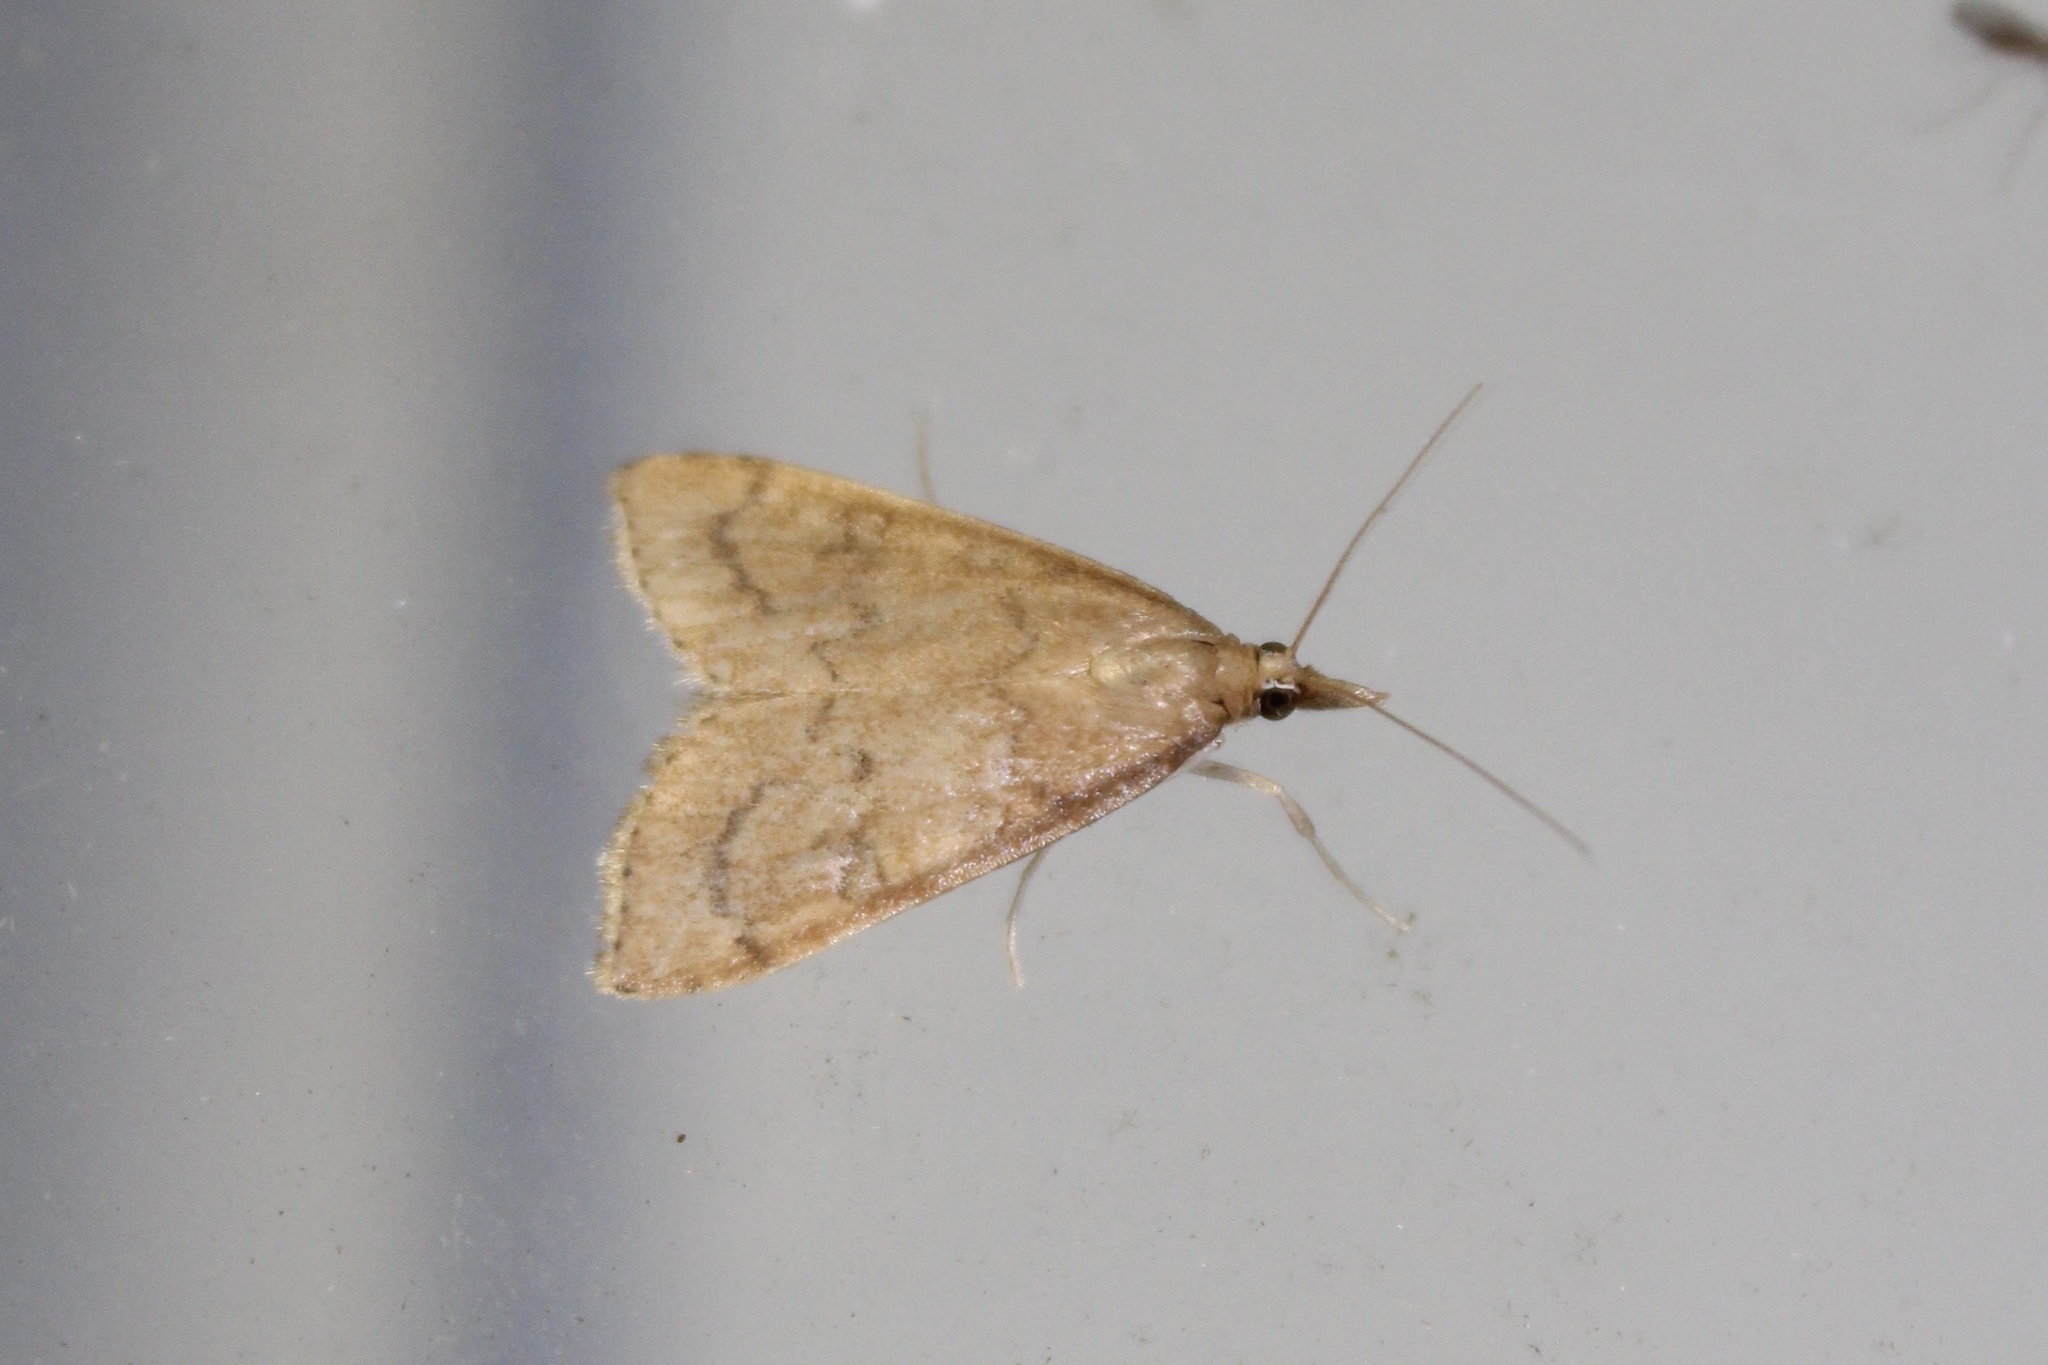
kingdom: Animalia
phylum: Arthropoda
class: Insecta
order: Lepidoptera
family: Crambidae
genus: Udea
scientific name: Udea rubigalis
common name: Celery leaftier moth
